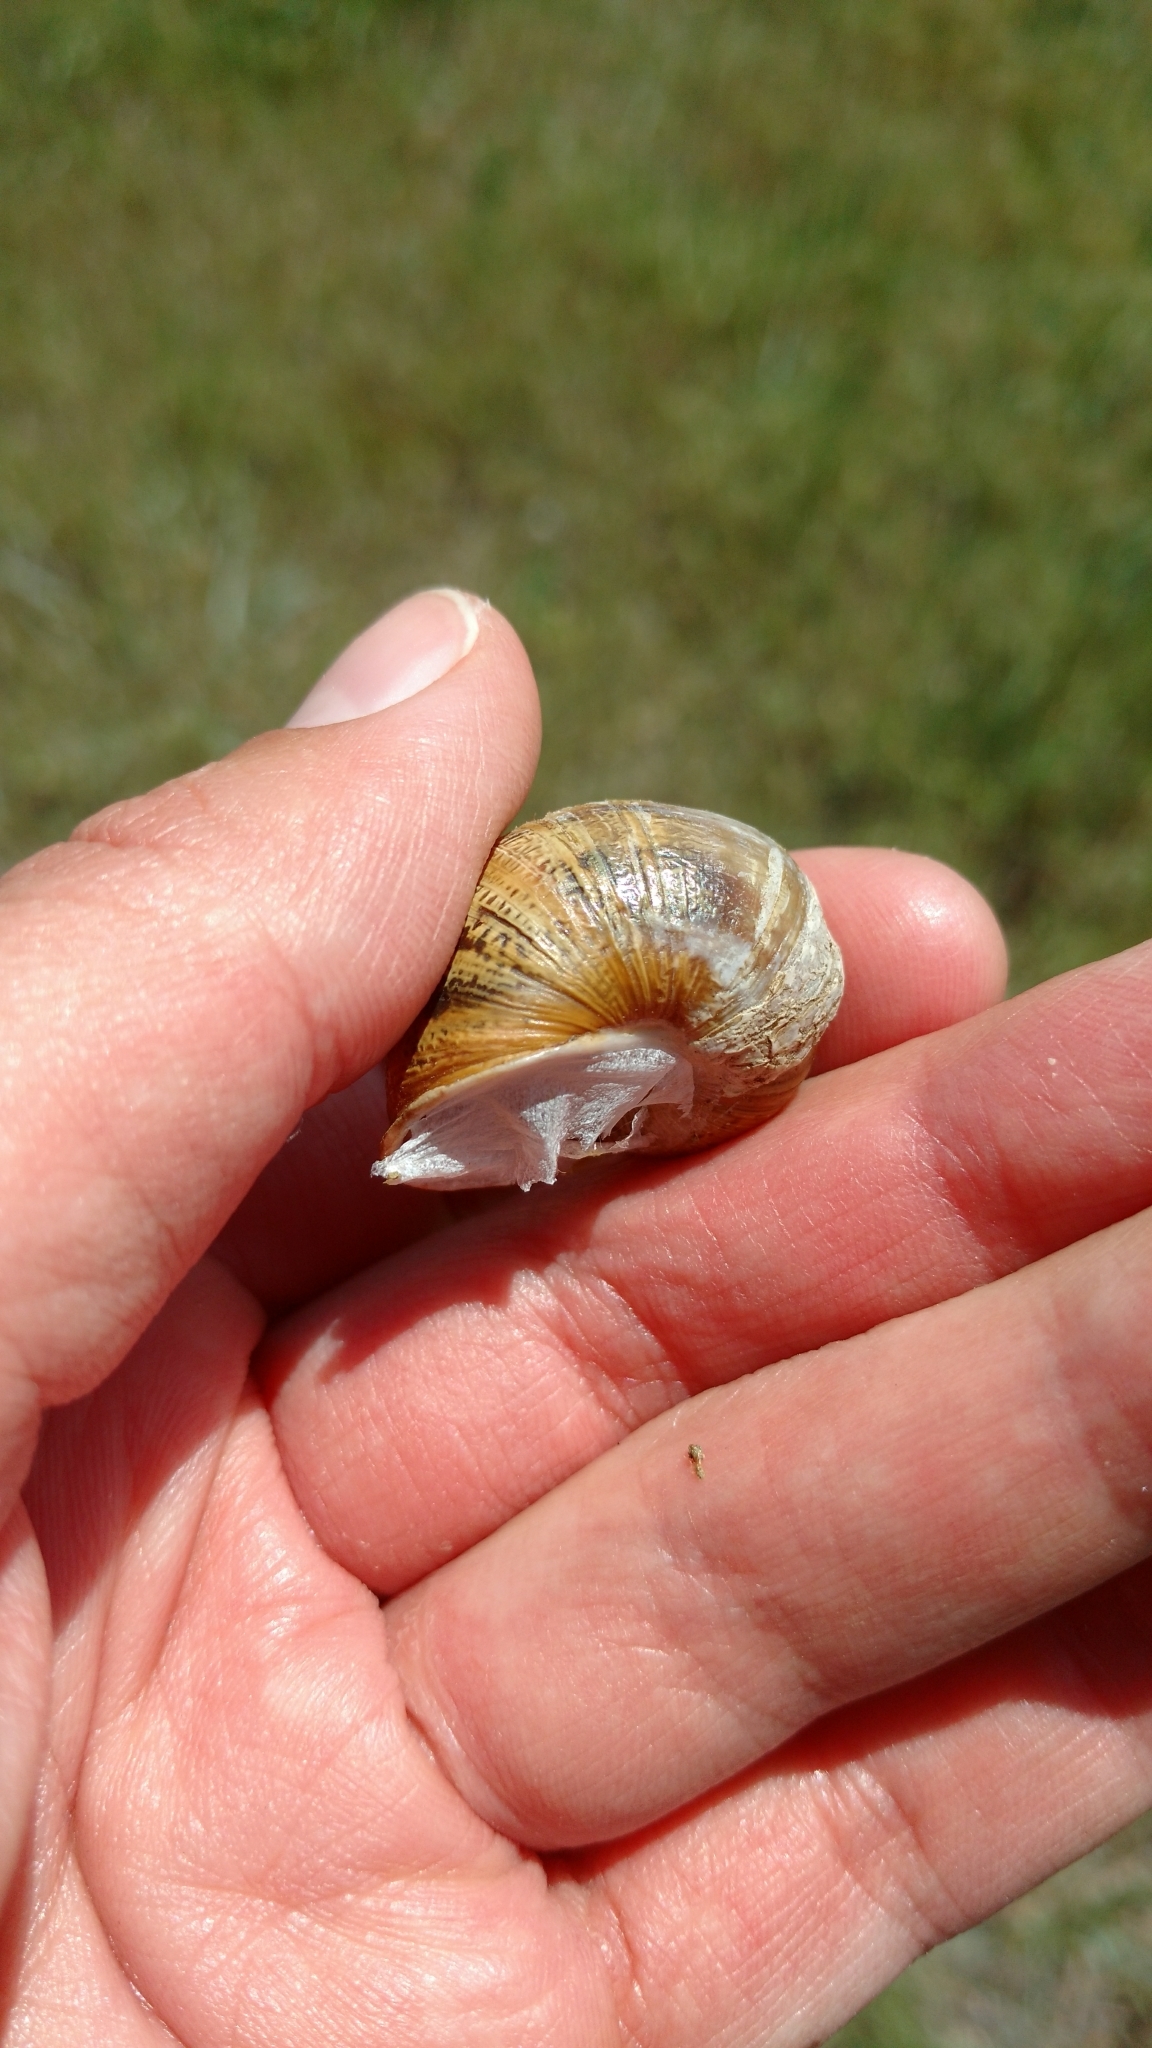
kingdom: Animalia
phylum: Mollusca
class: Gastropoda
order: Stylommatophora
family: Helicidae
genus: Cornu
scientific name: Cornu aspersum
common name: Brown garden snail
